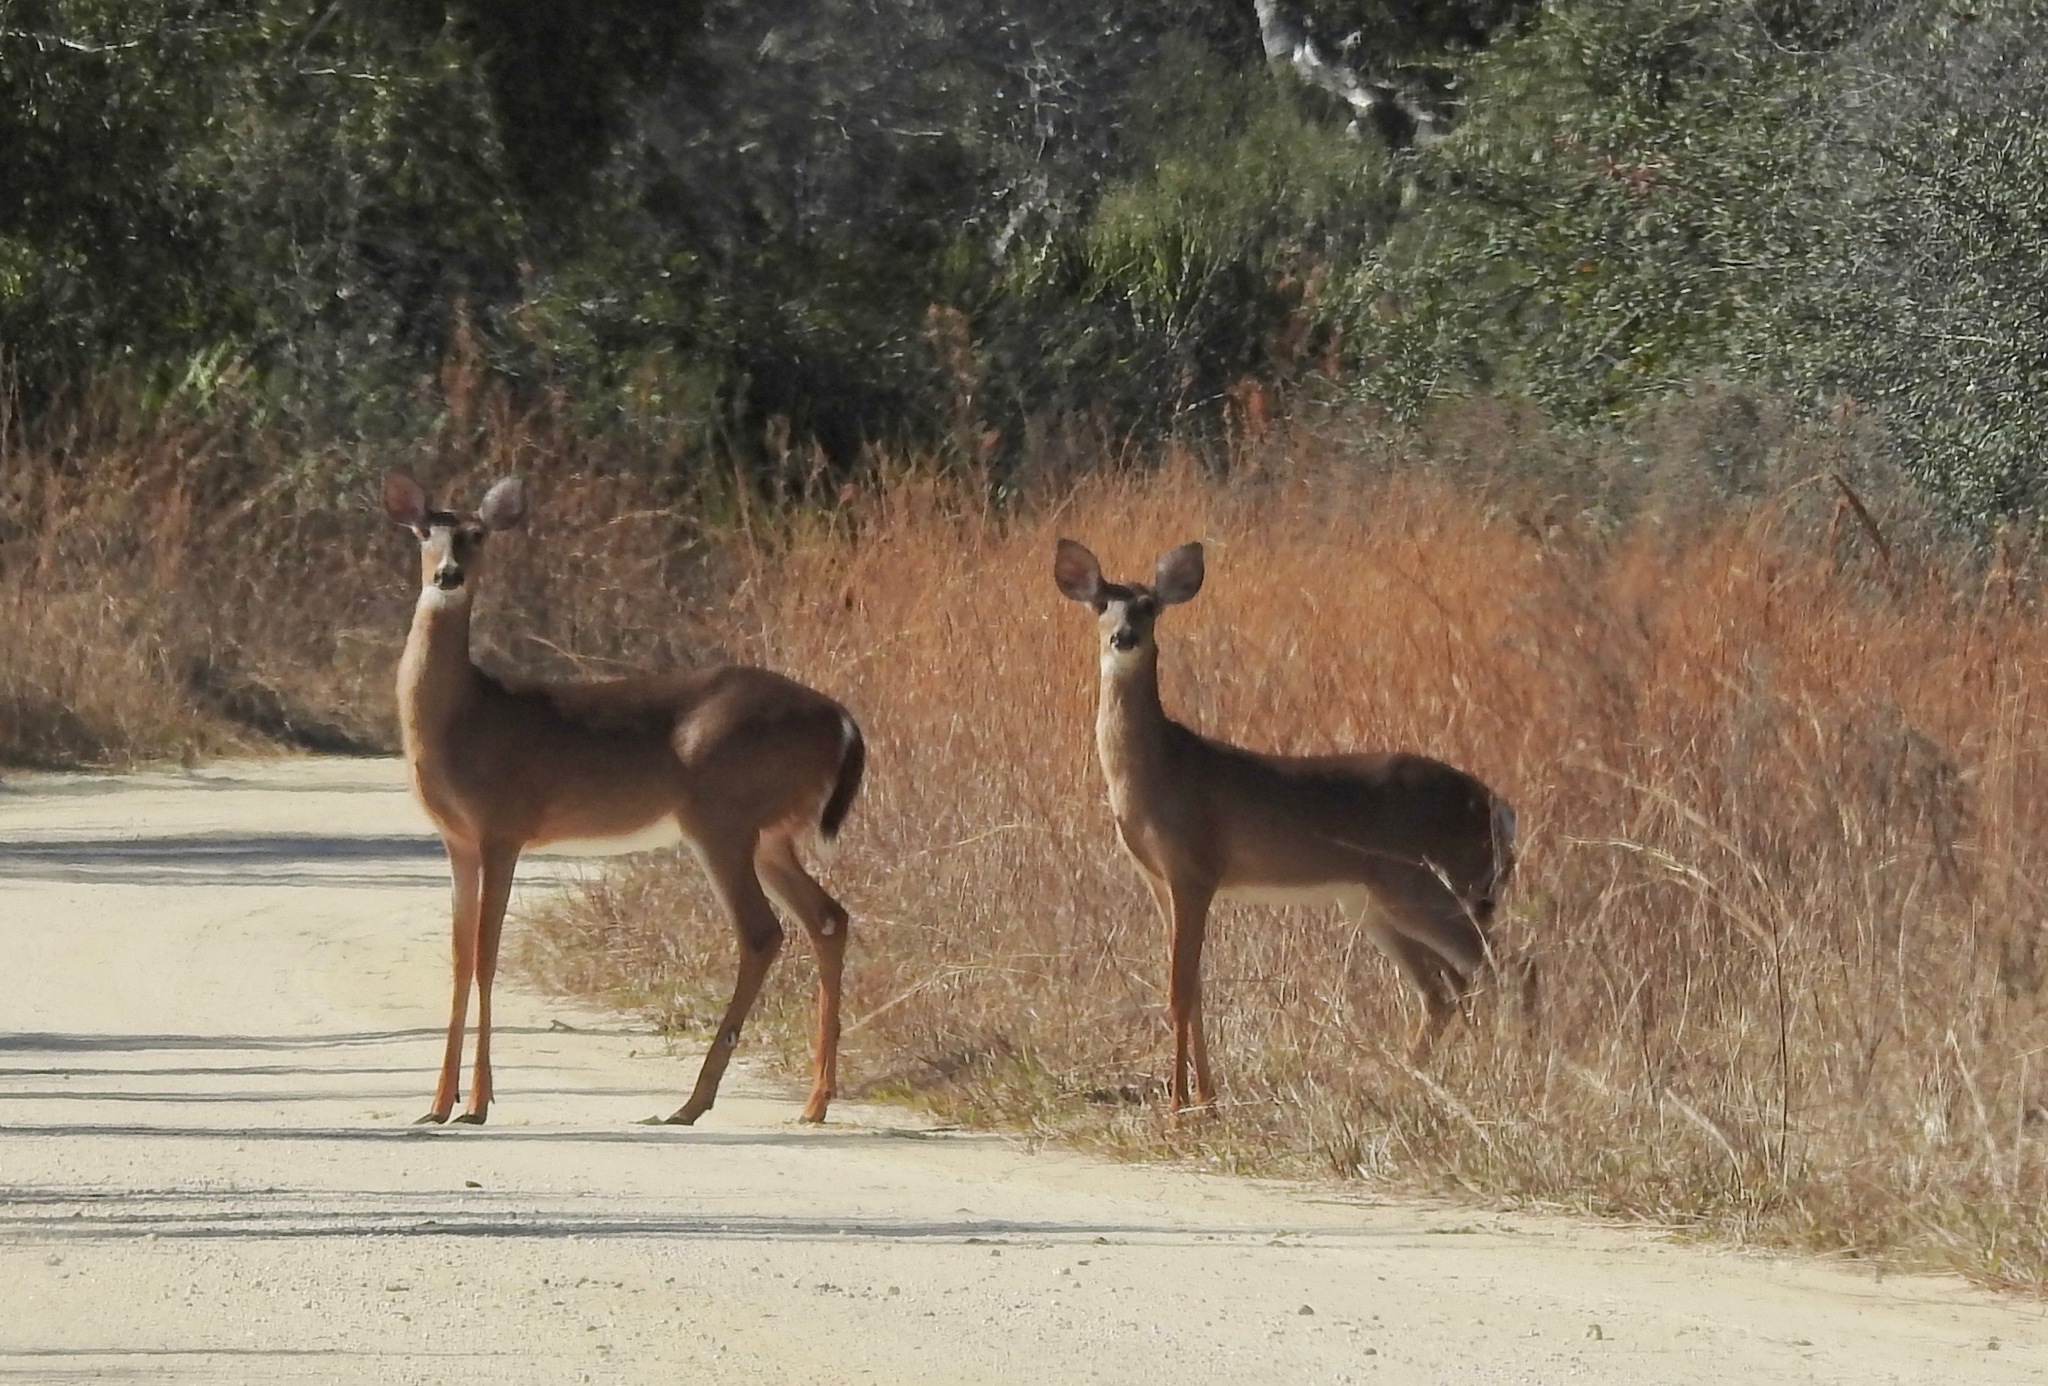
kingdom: Animalia
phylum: Chordata
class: Mammalia
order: Artiodactyla
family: Cervidae
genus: Odocoileus
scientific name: Odocoileus virginianus
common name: White-tailed deer
